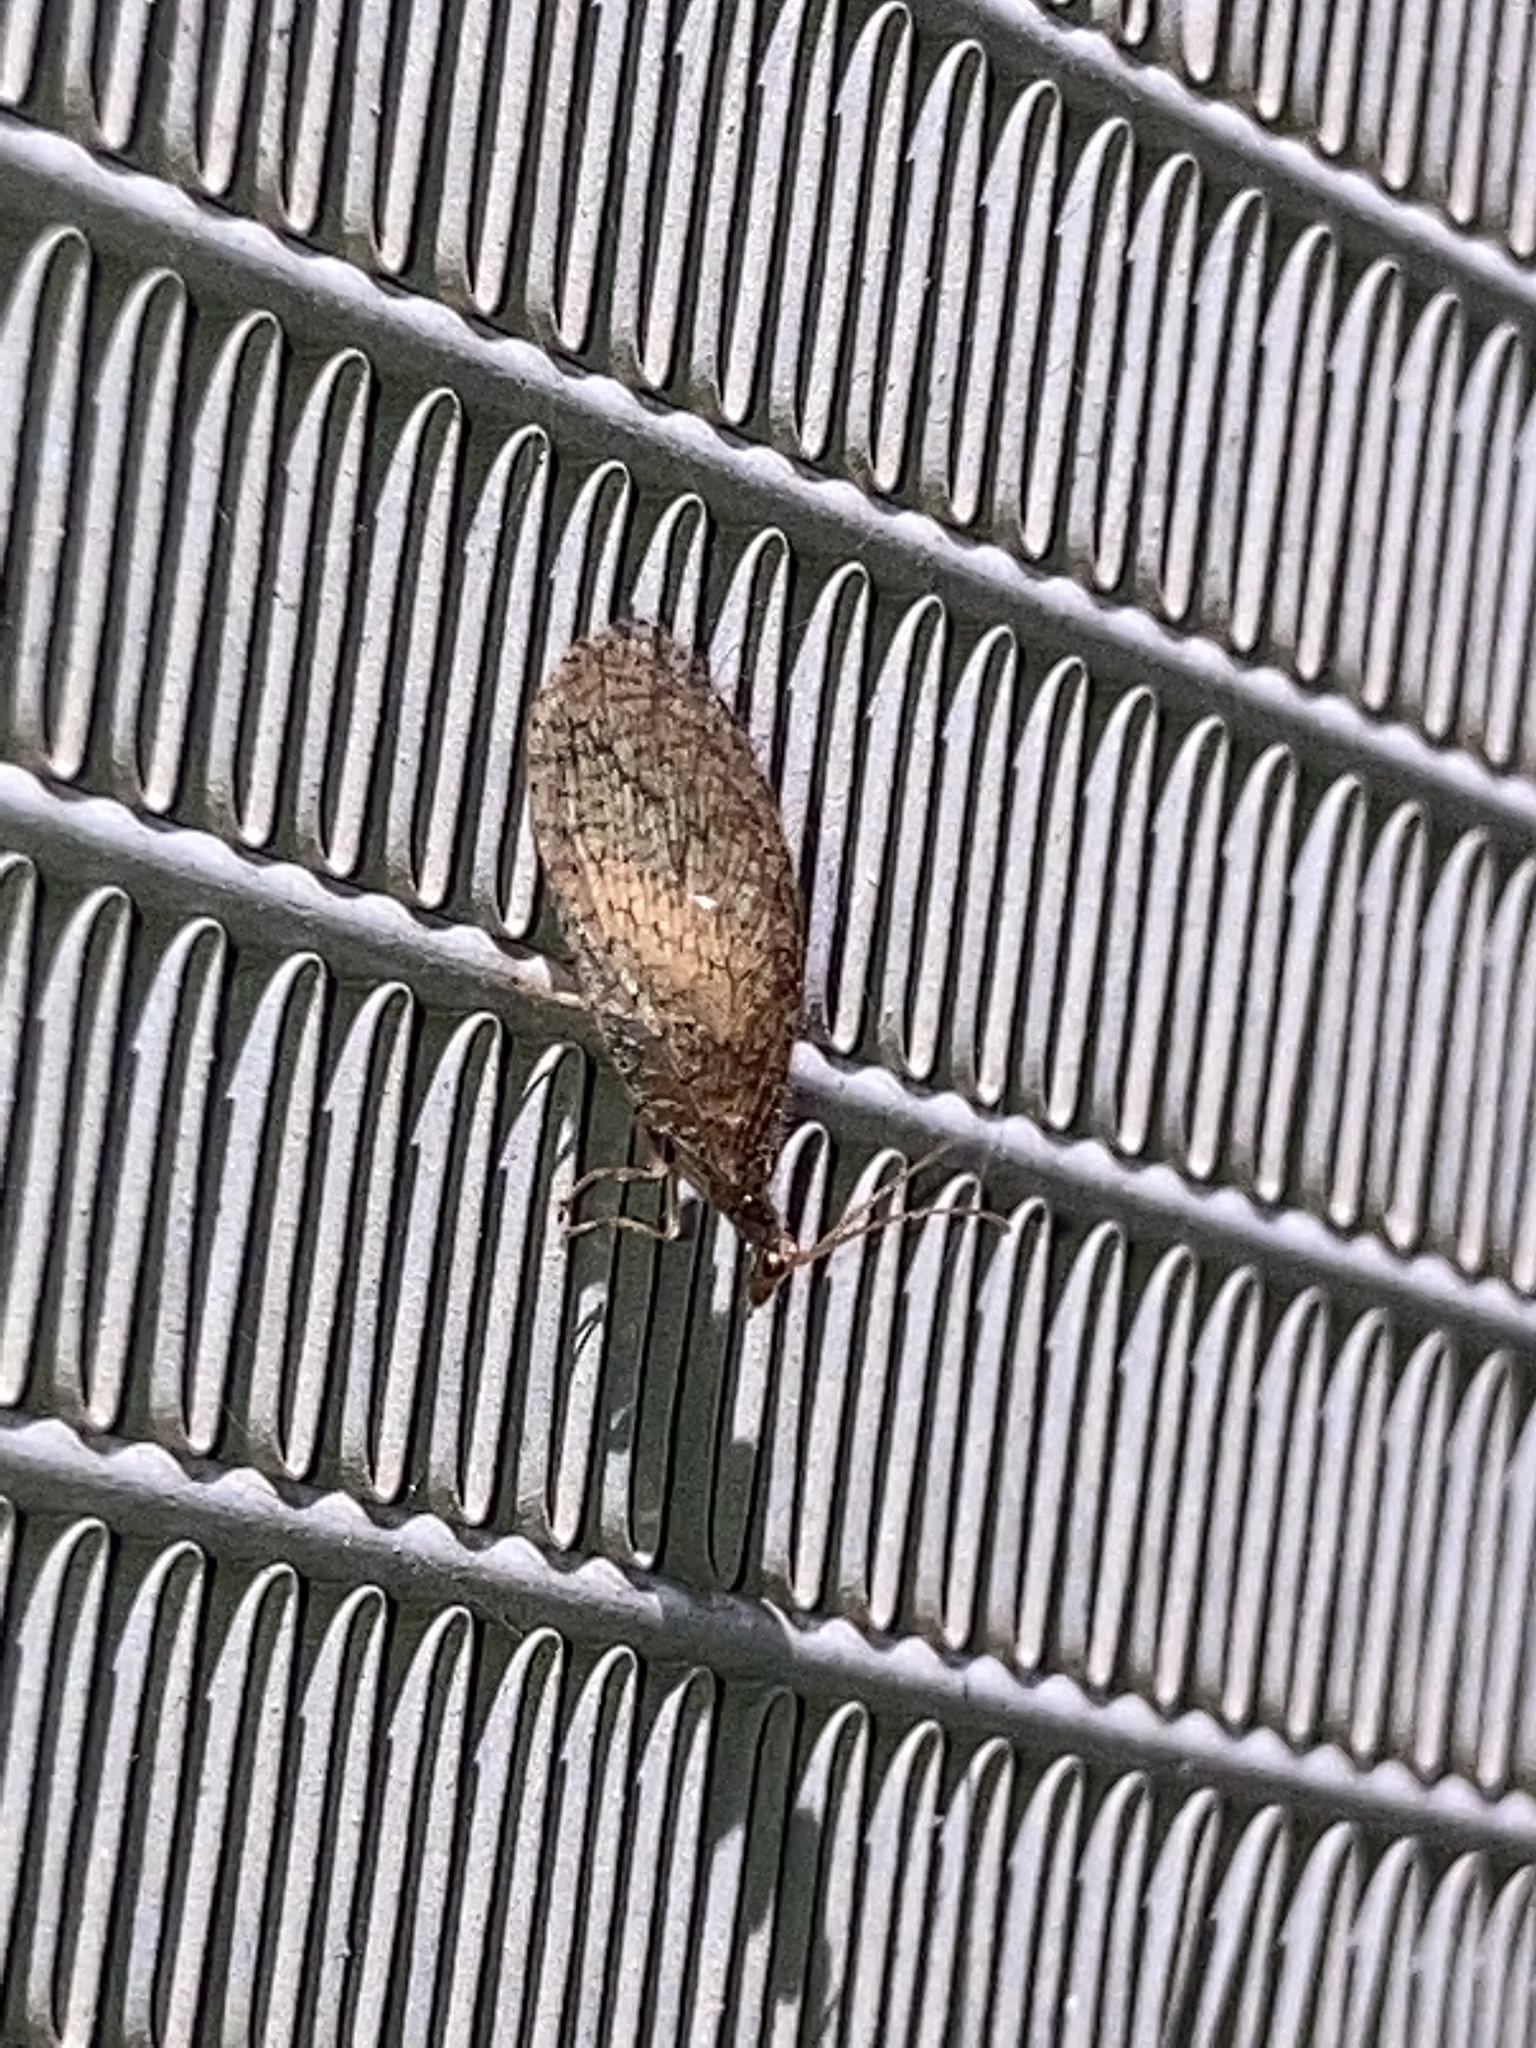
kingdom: Animalia
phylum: Arthropoda
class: Insecta
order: Neuroptera
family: Hemerobiidae
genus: Micromus
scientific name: Micromus posticus
